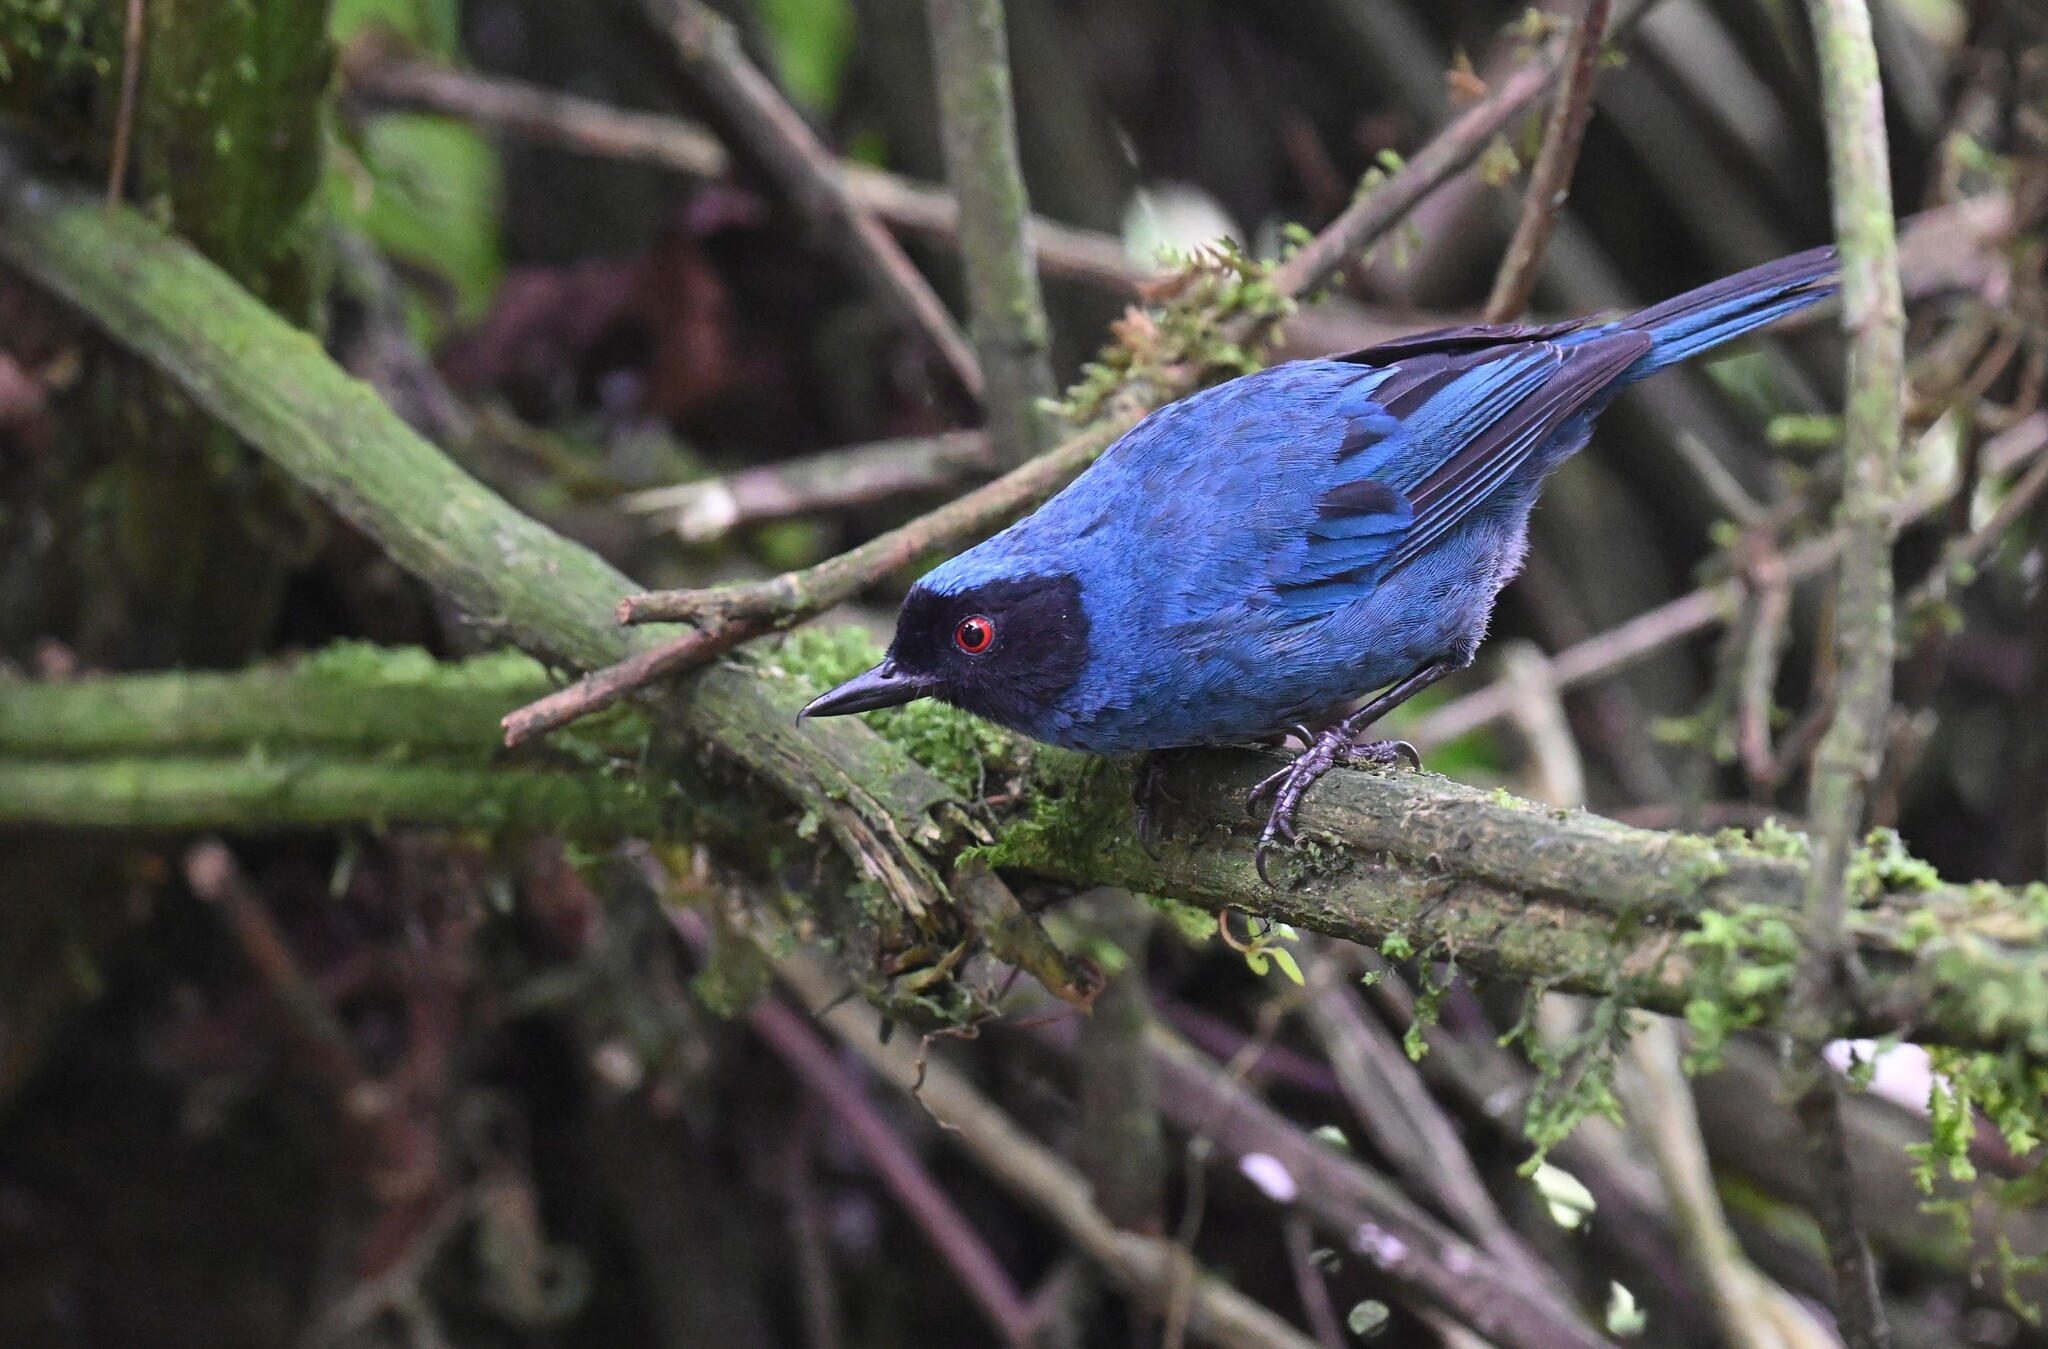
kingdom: Animalia
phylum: Chordata
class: Aves
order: Passeriformes
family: Thraupidae
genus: Diglossa
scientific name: Diglossa cyanea
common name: Masked flowerpiercer
